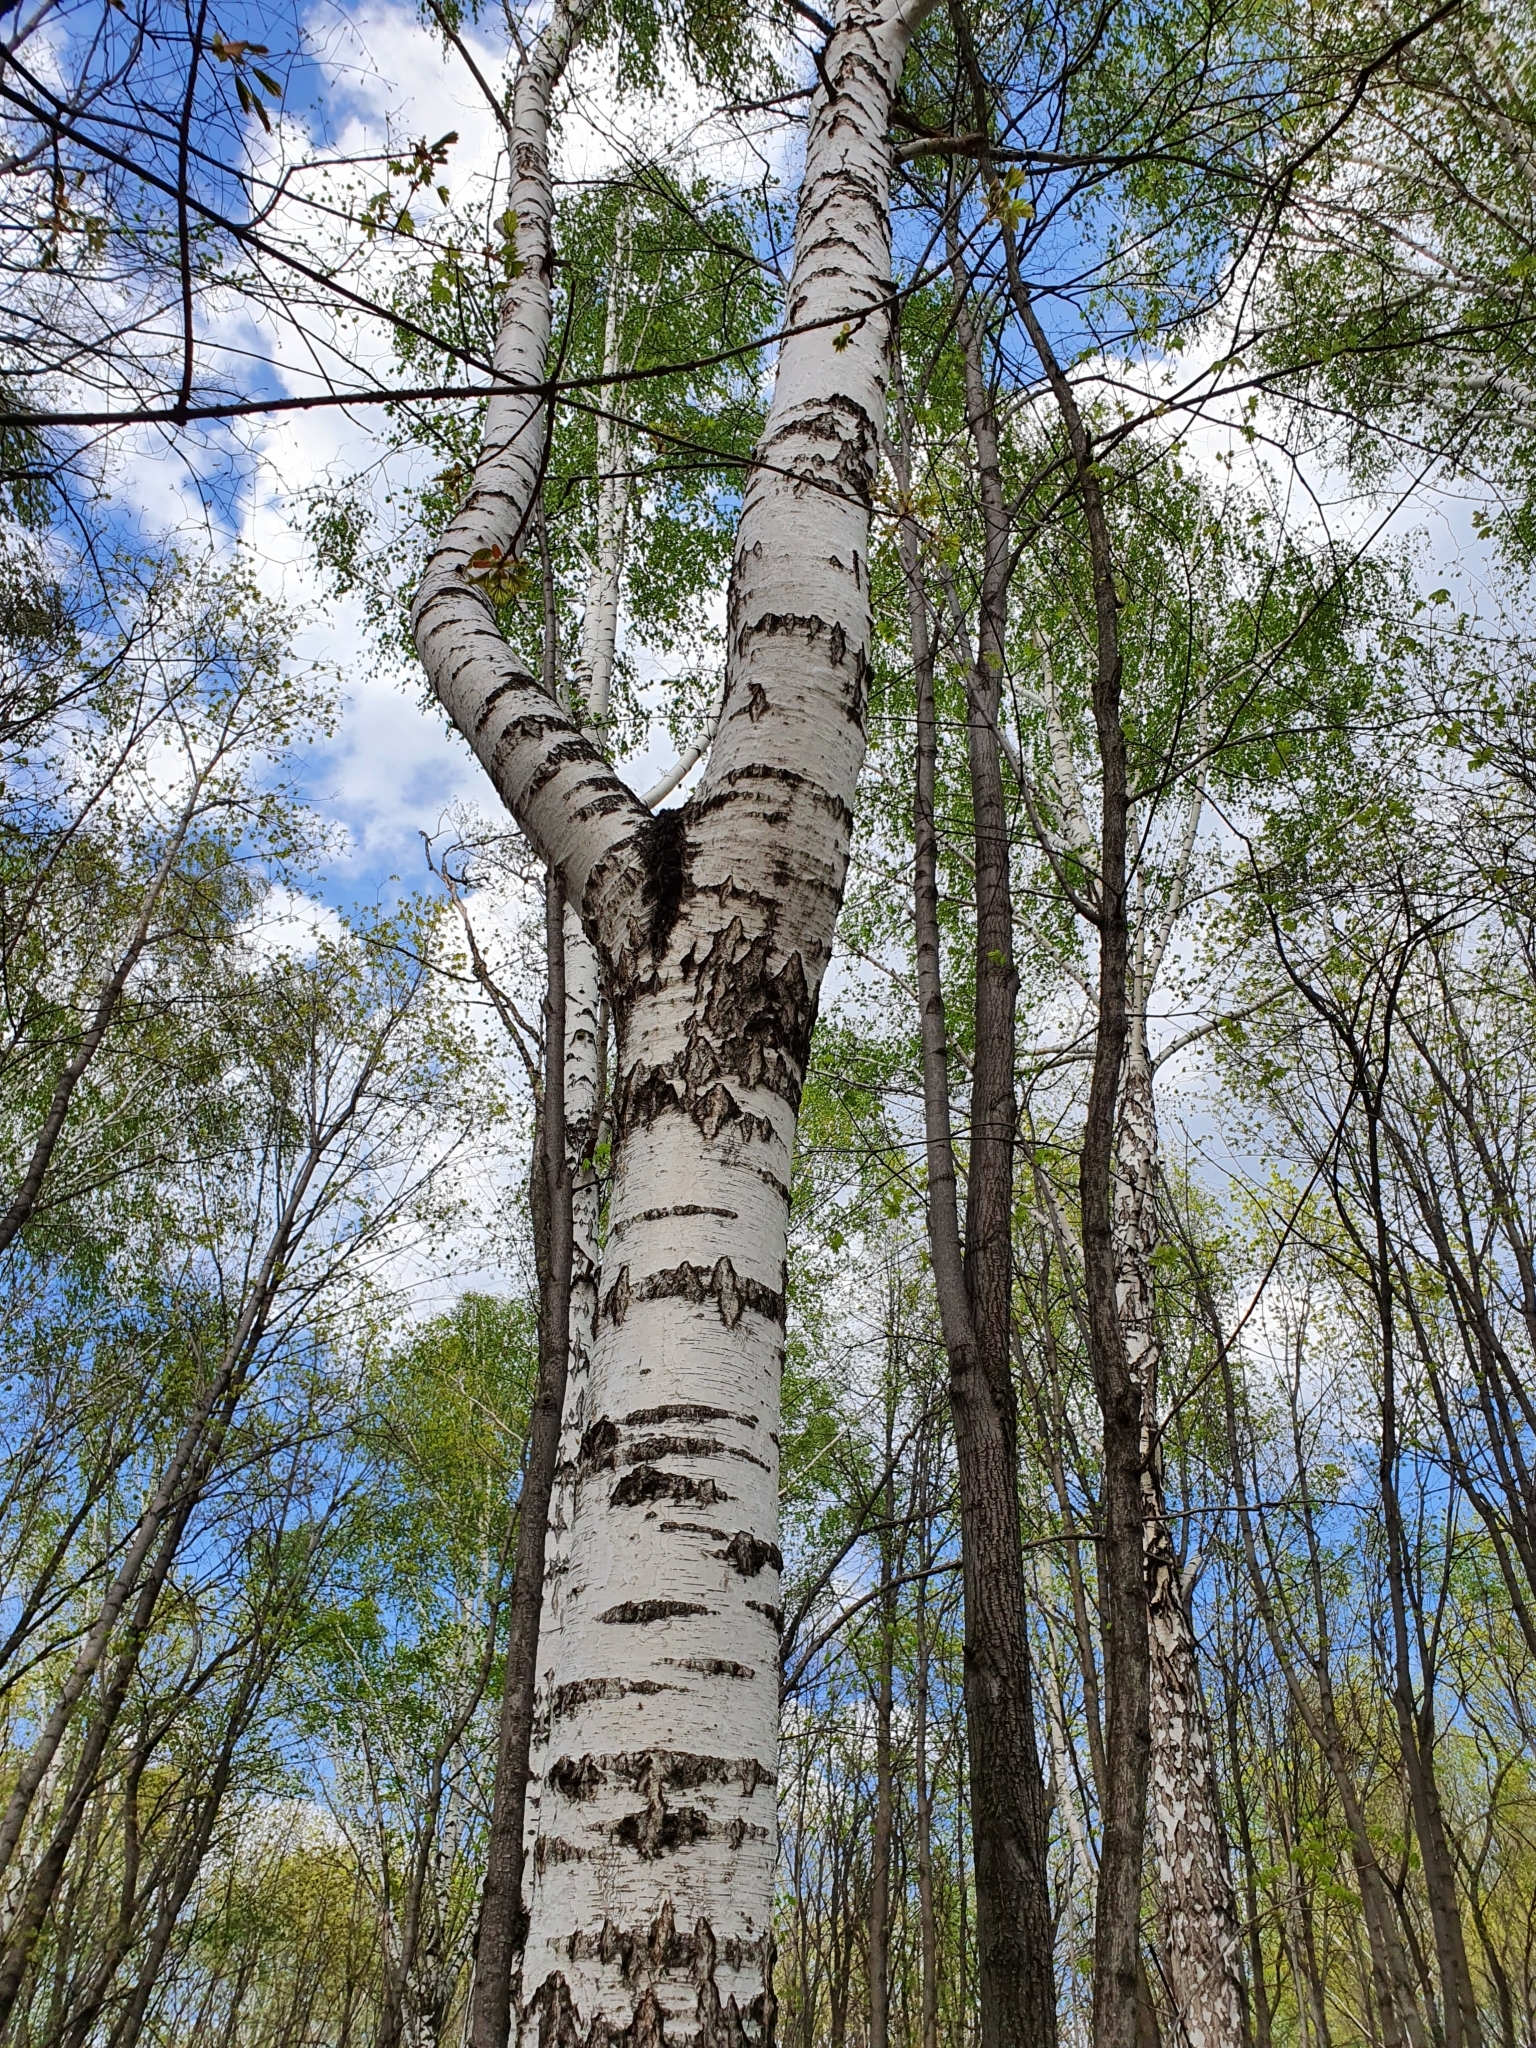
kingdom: Plantae
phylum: Tracheophyta
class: Magnoliopsida
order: Fagales
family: Betulaceae
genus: Betula
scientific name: Betula pendula
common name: Silver birch
